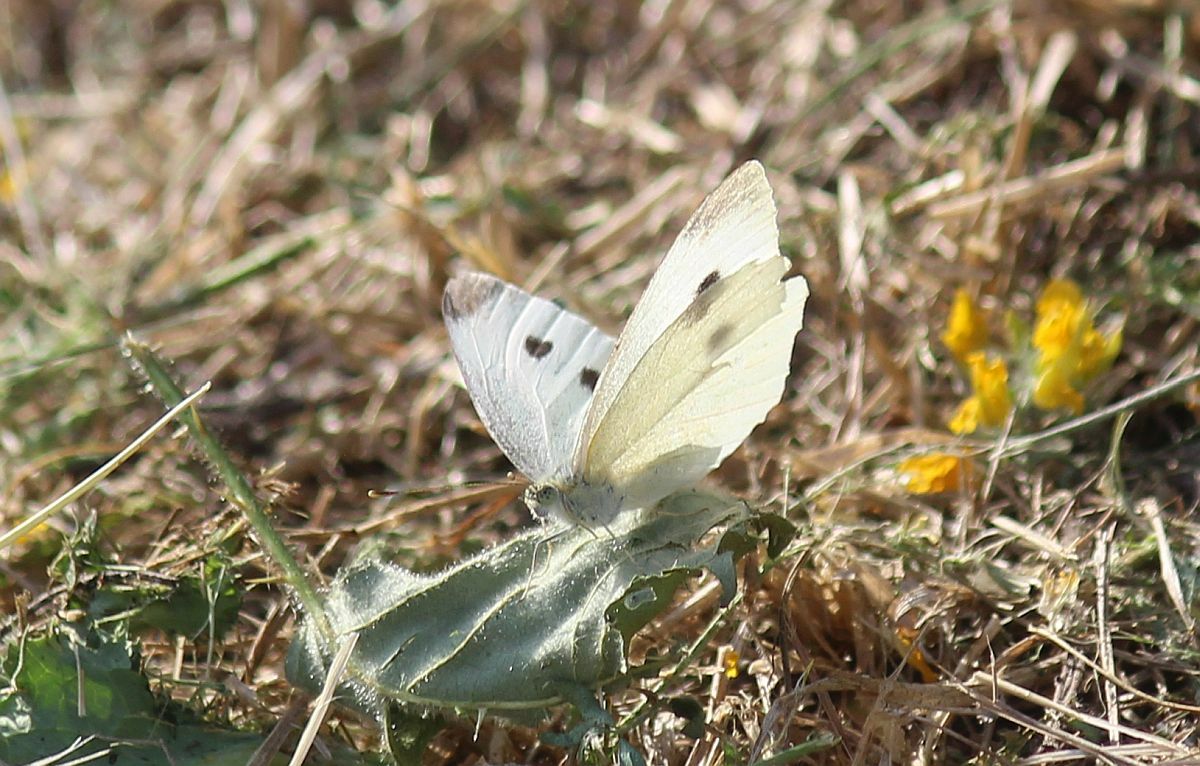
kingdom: Animalia
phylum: Arthropoda
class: Insecta
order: Lepidoptera
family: Pieridae
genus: Pieris
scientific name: Pieris rapae
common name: Small white
